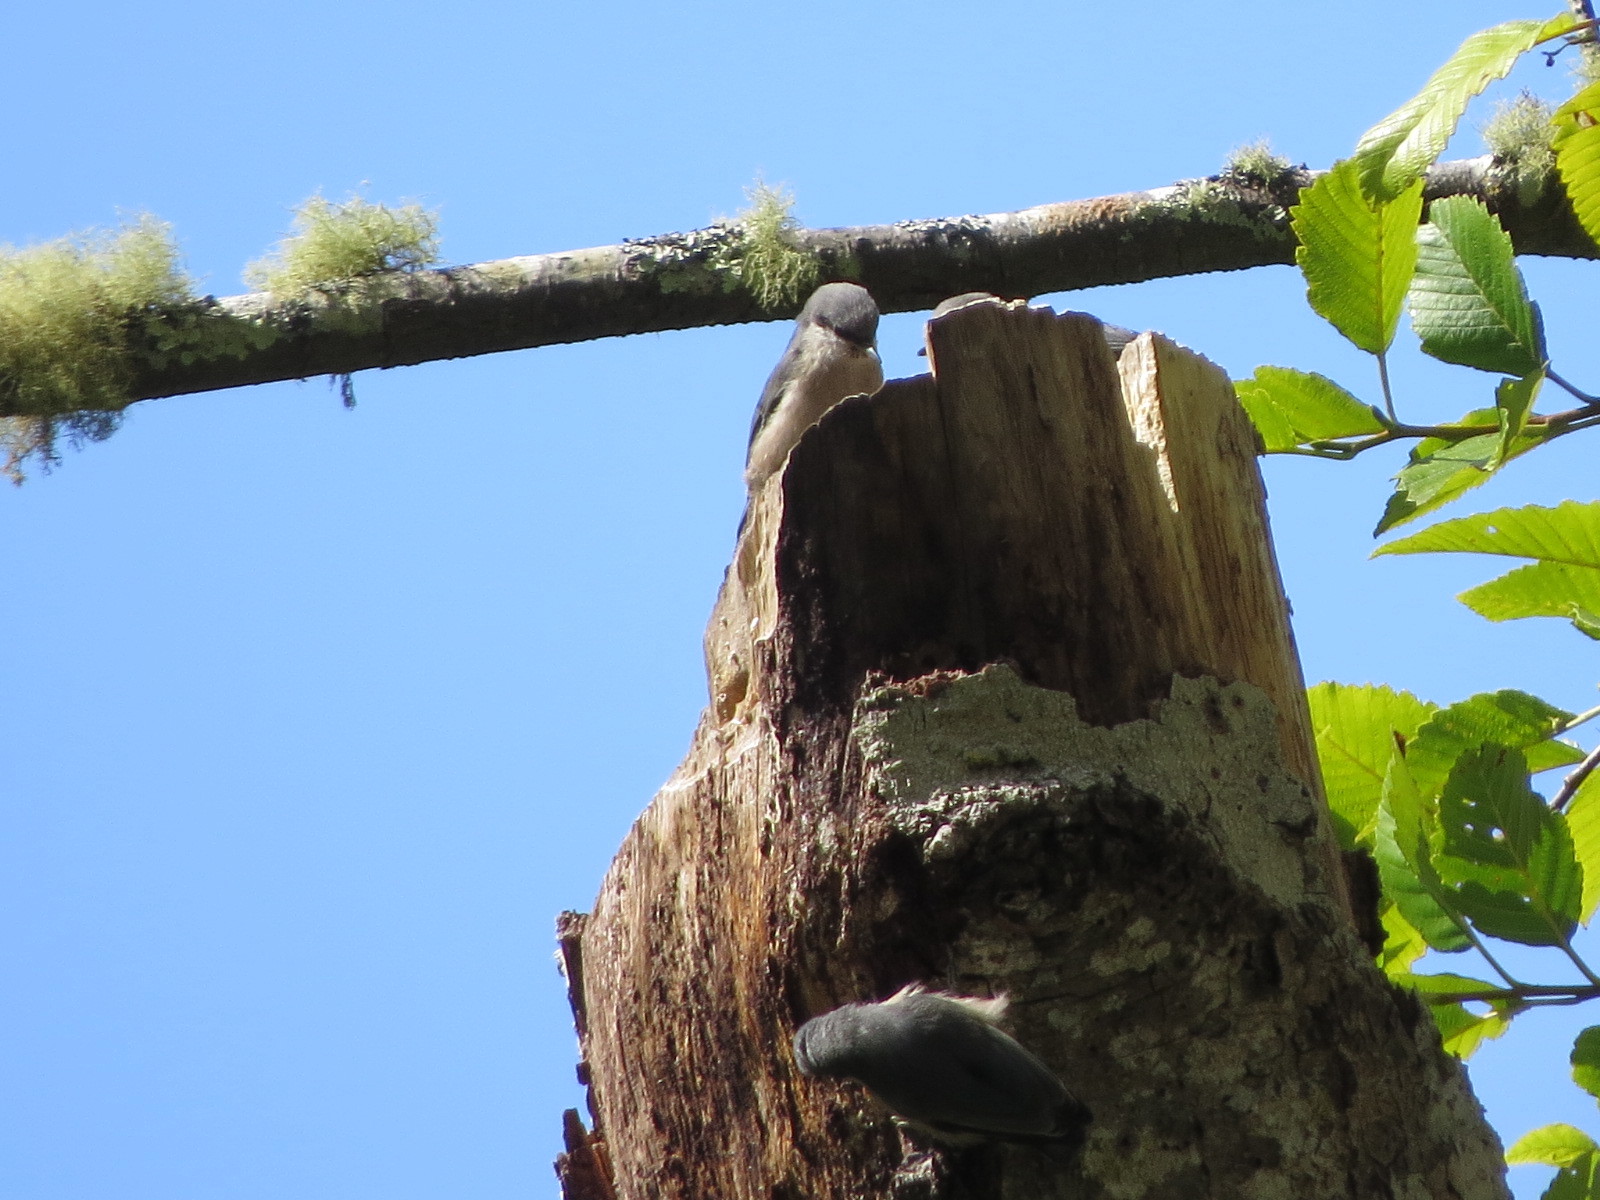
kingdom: Animalia
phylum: Chordata
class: Aves
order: Passeriformes
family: Sittidae
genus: Sitta
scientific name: Sitta pygmaea
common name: Pygmy nuthatch
